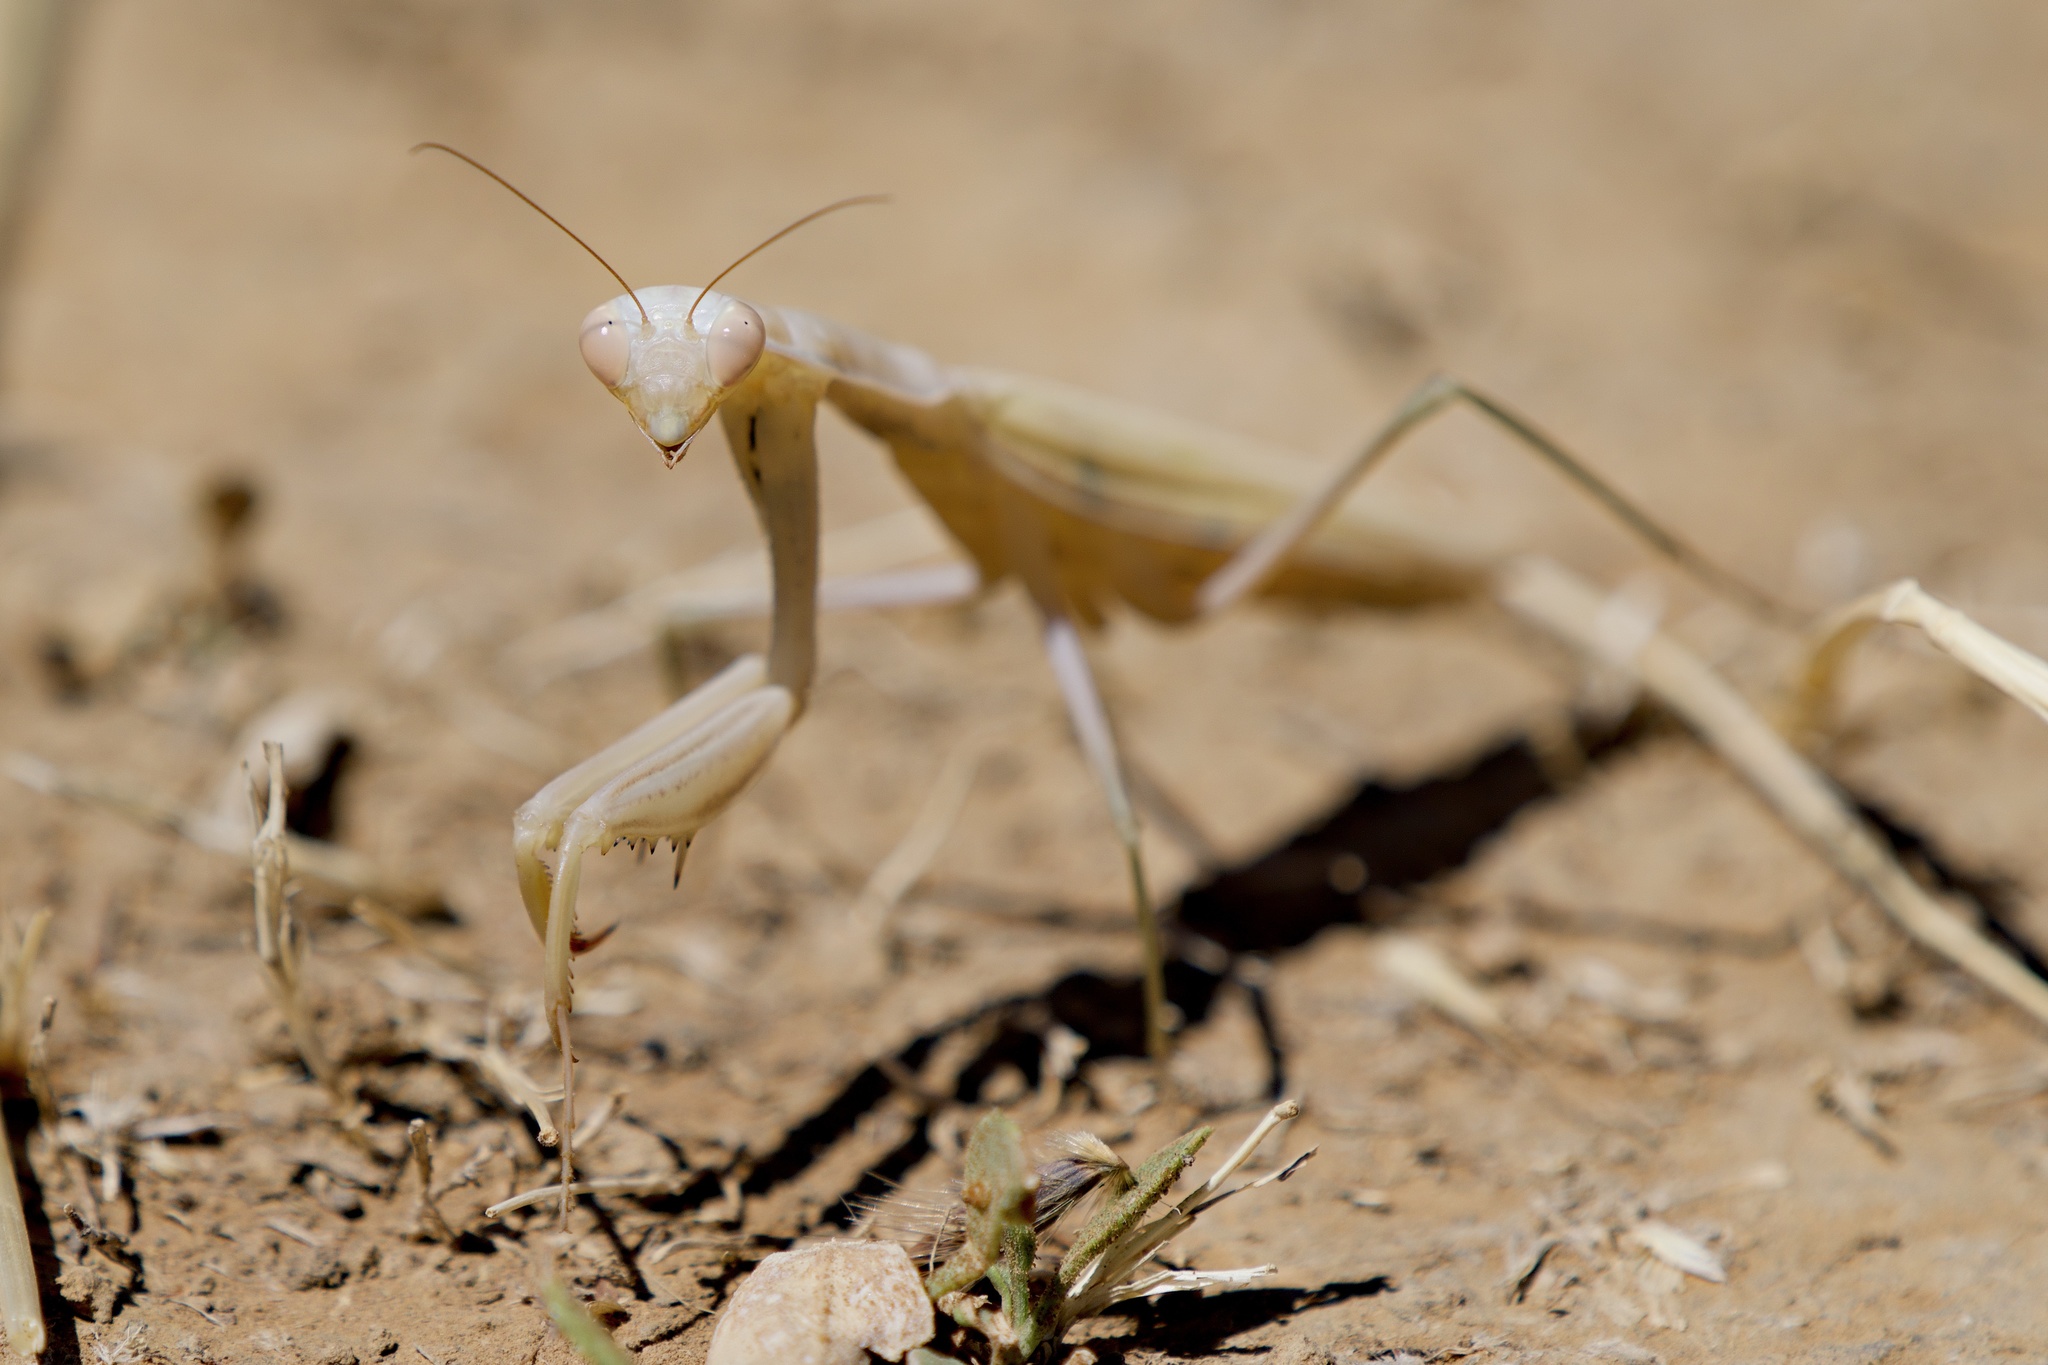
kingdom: Animalia
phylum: Arthropoda
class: Insecta
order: Mantodea
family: Mantidae
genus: Mantis
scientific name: Mantis religiosa
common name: Praying mantis
